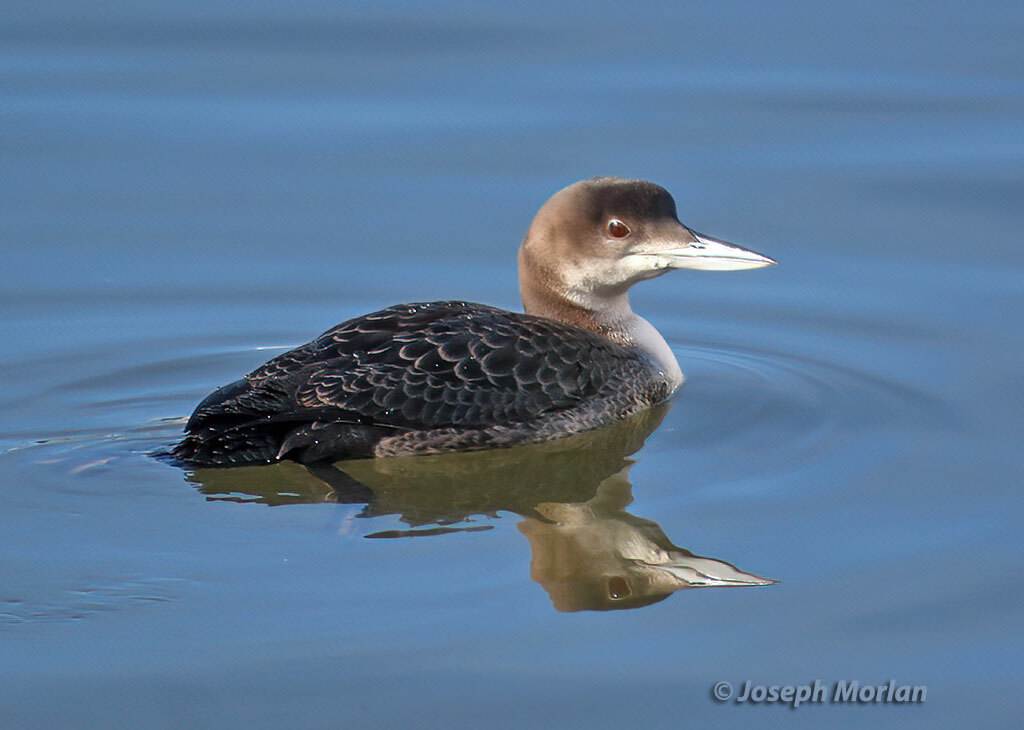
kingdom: Animalia
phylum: Chordata
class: Aves
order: Gaviiformes
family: Gaviidae
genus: Gavia
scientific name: Gavia immer
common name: Common loon
